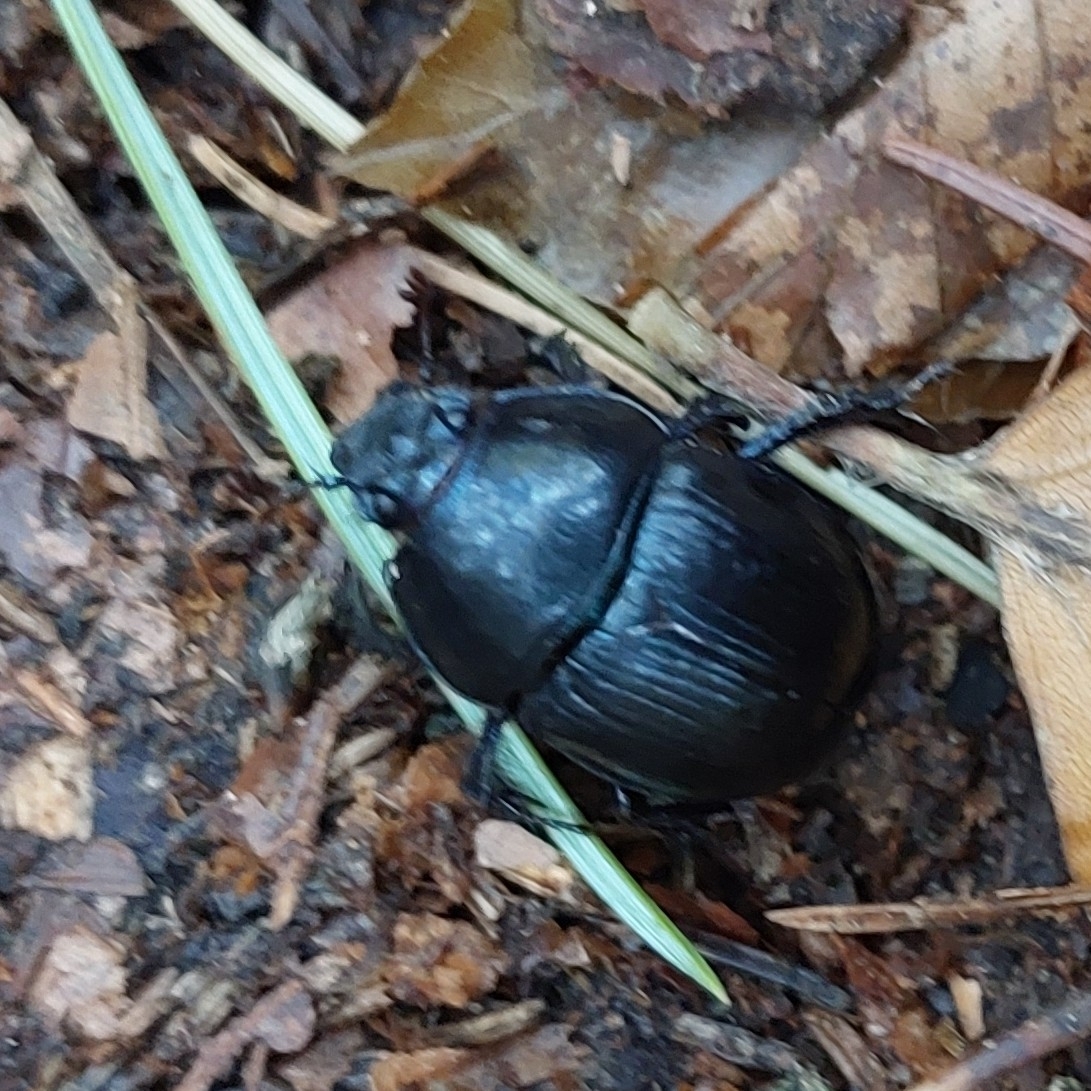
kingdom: Animalia
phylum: Arthropoda
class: Insecta
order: Coleoptera
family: Geotrupidae
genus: Anoplotrupes
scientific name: Anoplotrupes stercorosus
